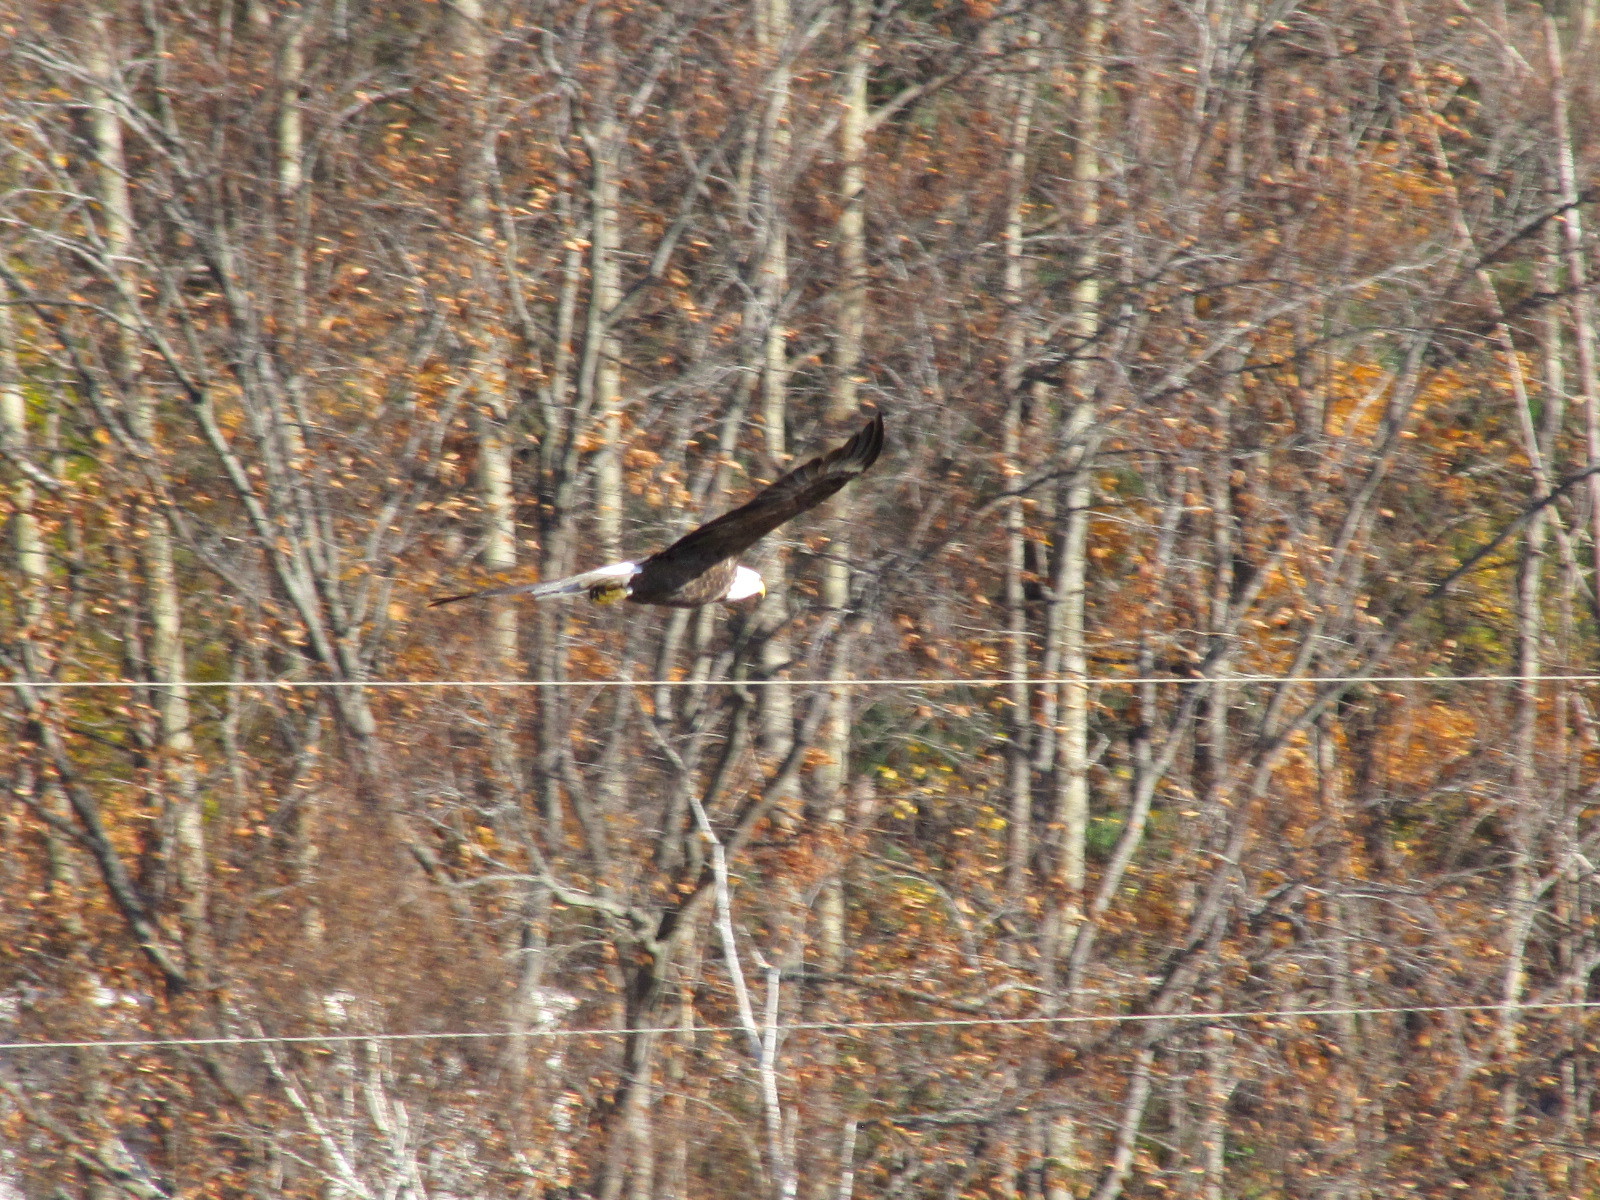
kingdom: Animalia
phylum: Chordata
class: Aves
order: Accipitriformes
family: Accipitridae
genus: Haliaeetus
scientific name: Haliaeetus leucocephalus
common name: Bald eagle
